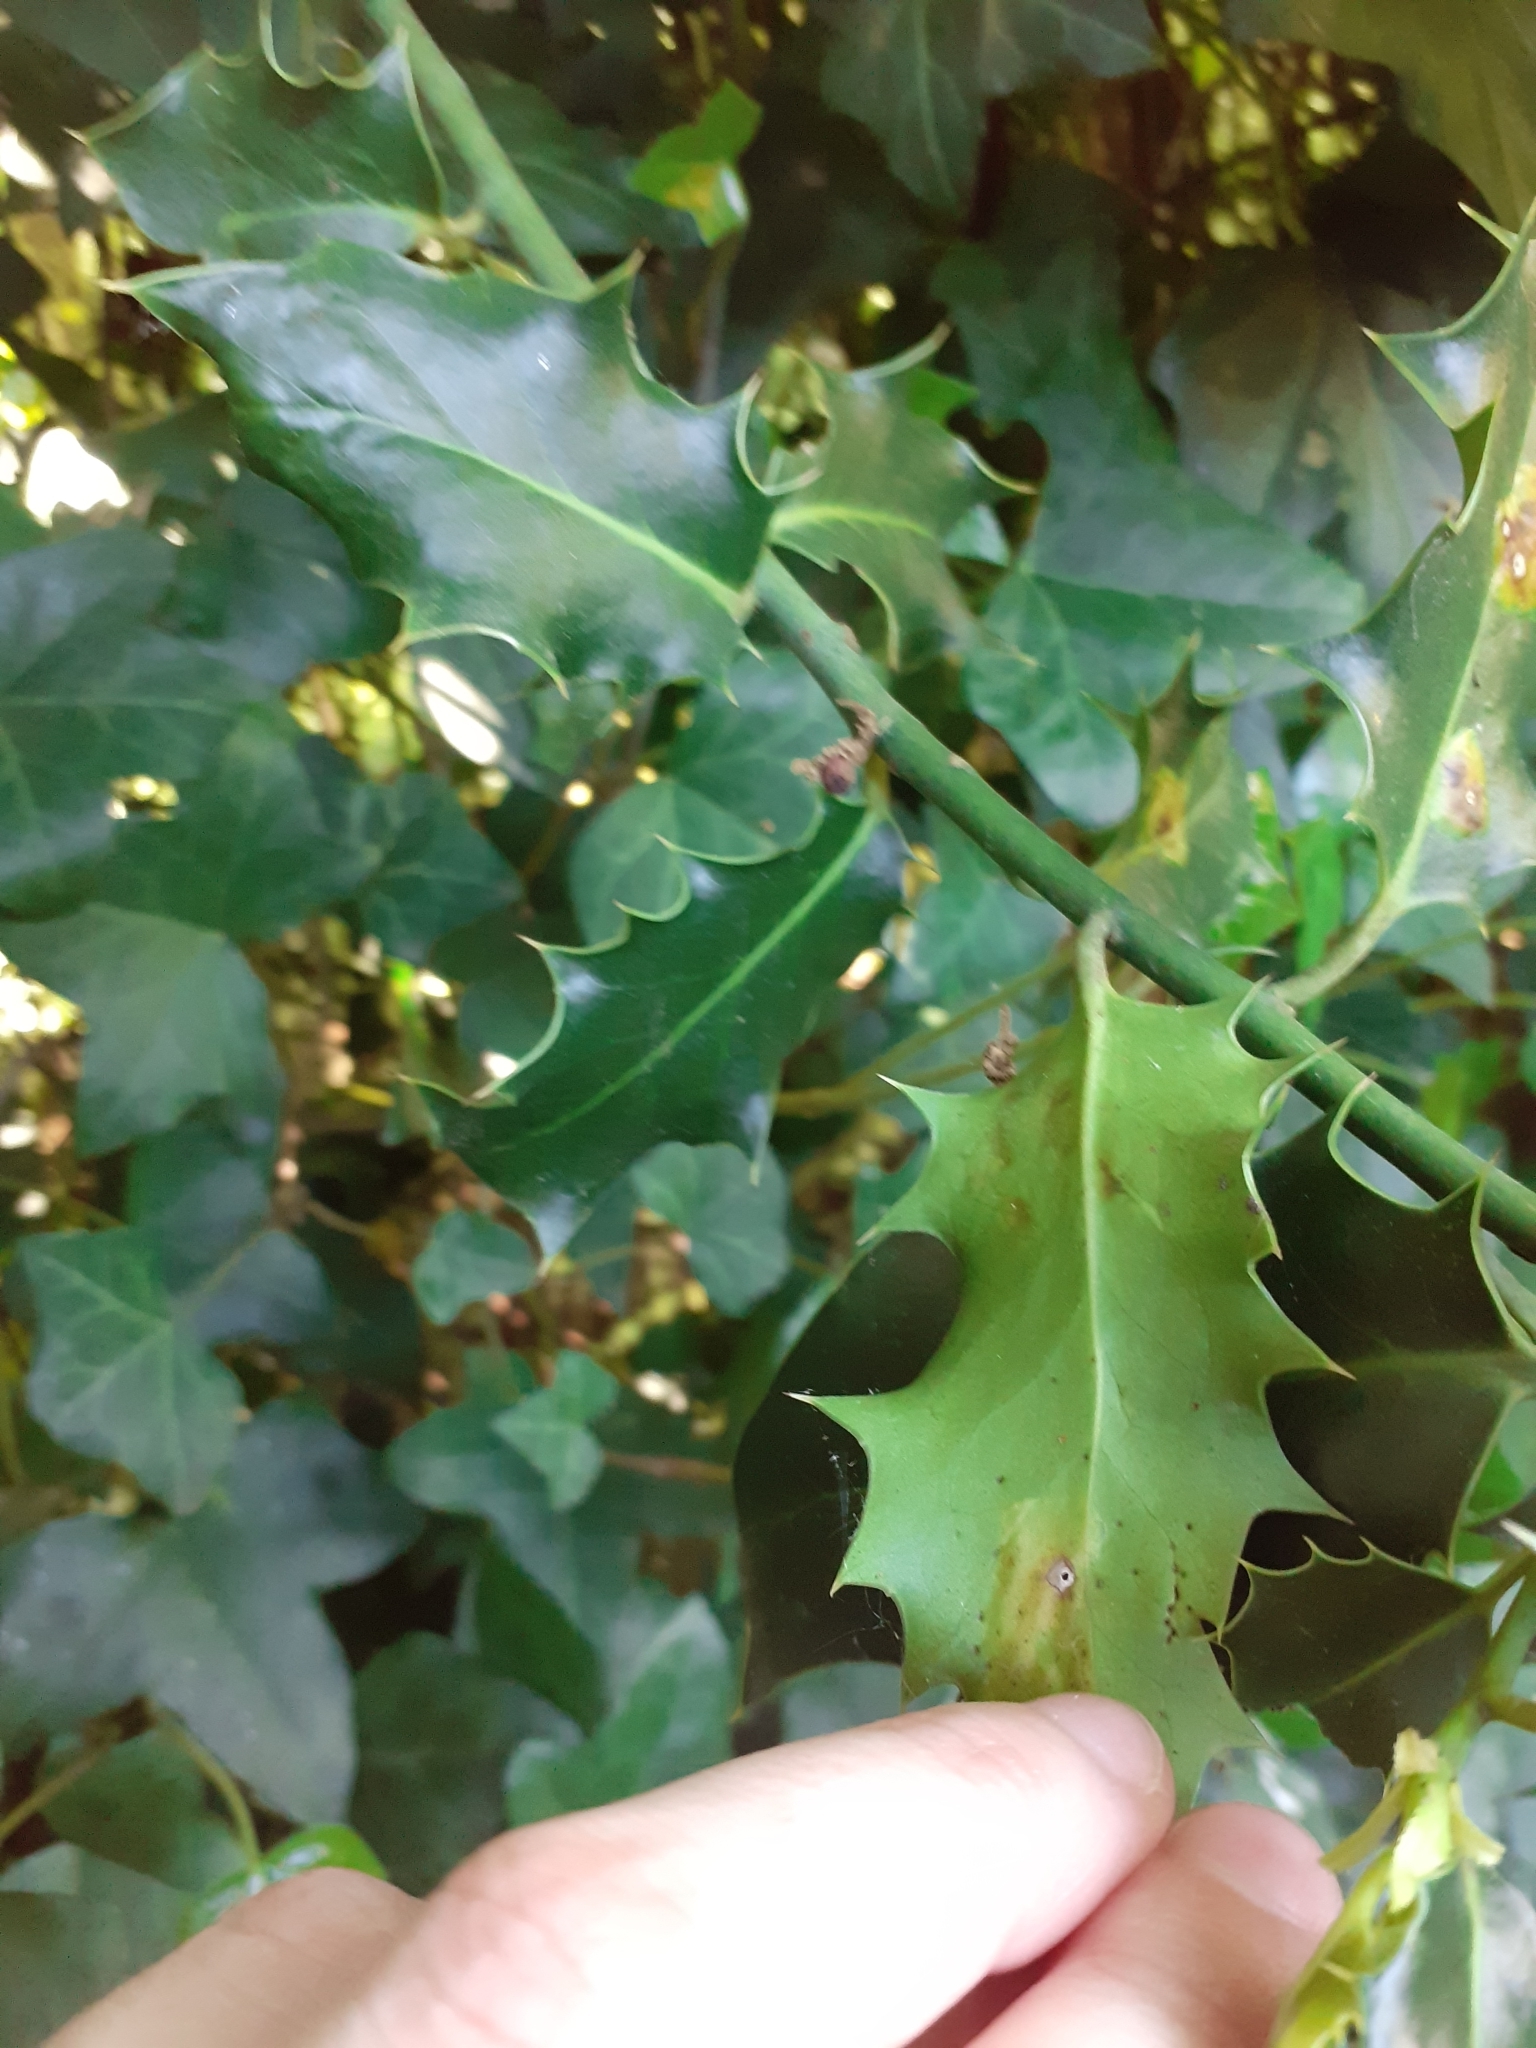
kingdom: Animalia
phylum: Arthropoda
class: Insecta
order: Diptera
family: Agromyzidae
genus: Phytomyza
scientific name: Phytomyza ilicis
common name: Holly leafminer
